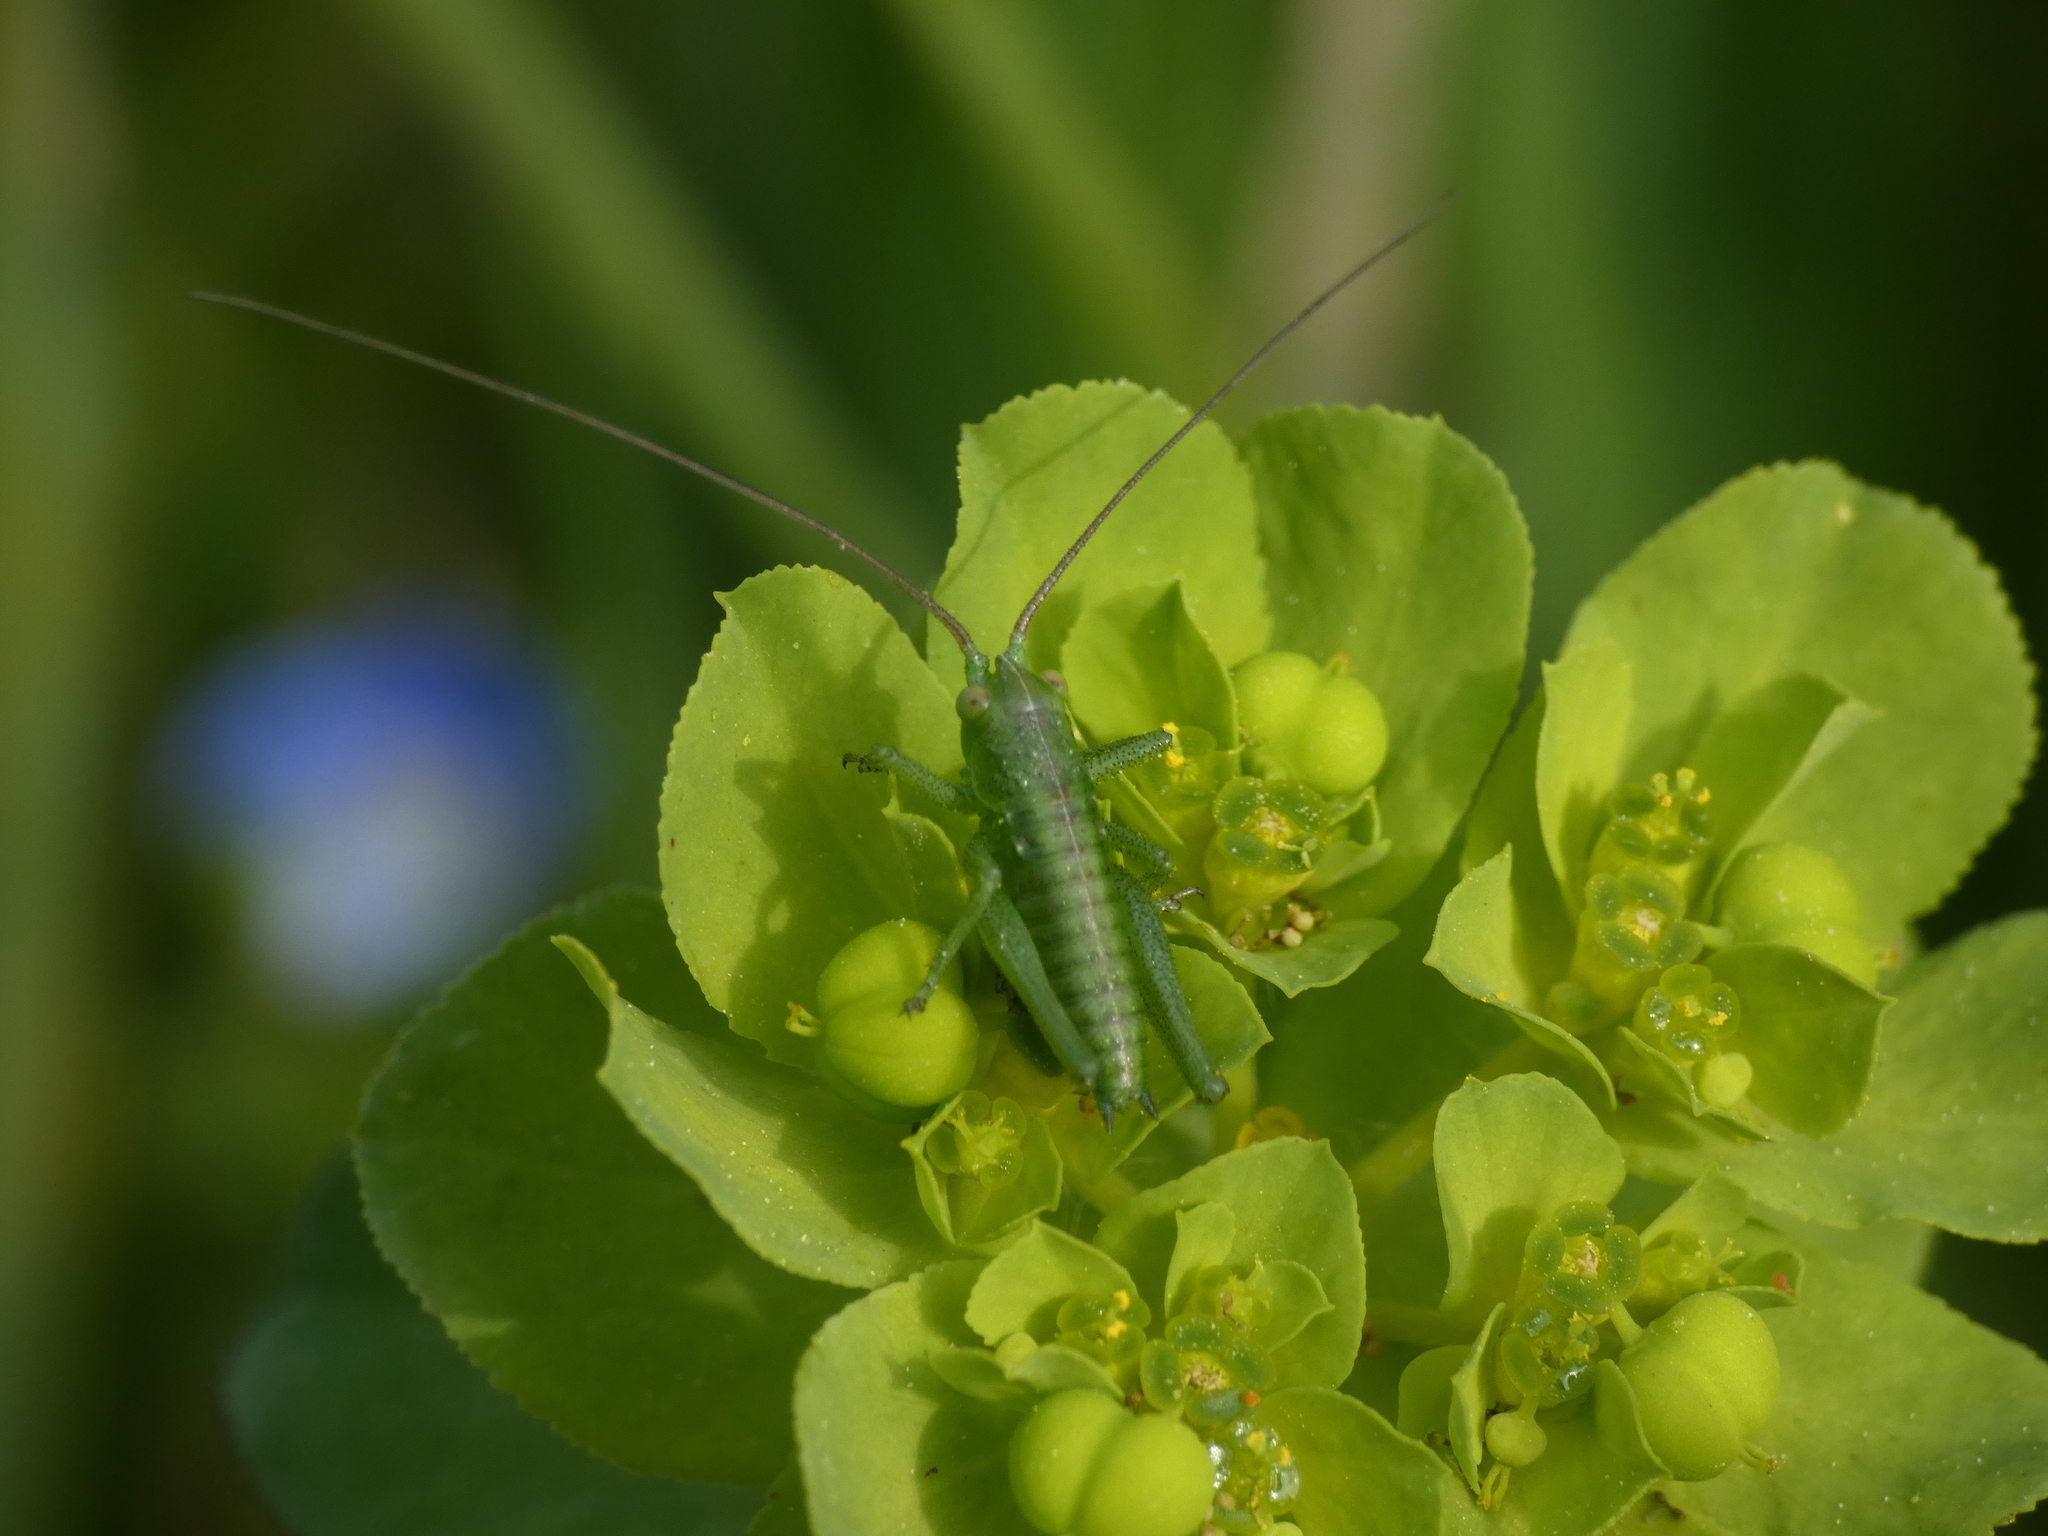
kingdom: Animalia
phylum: Arthropoda
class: Insecta
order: Orthoptera
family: Tettigoniidae
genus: Tettigonia
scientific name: Tettigonia viridissima
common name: Great green bush-cricket
